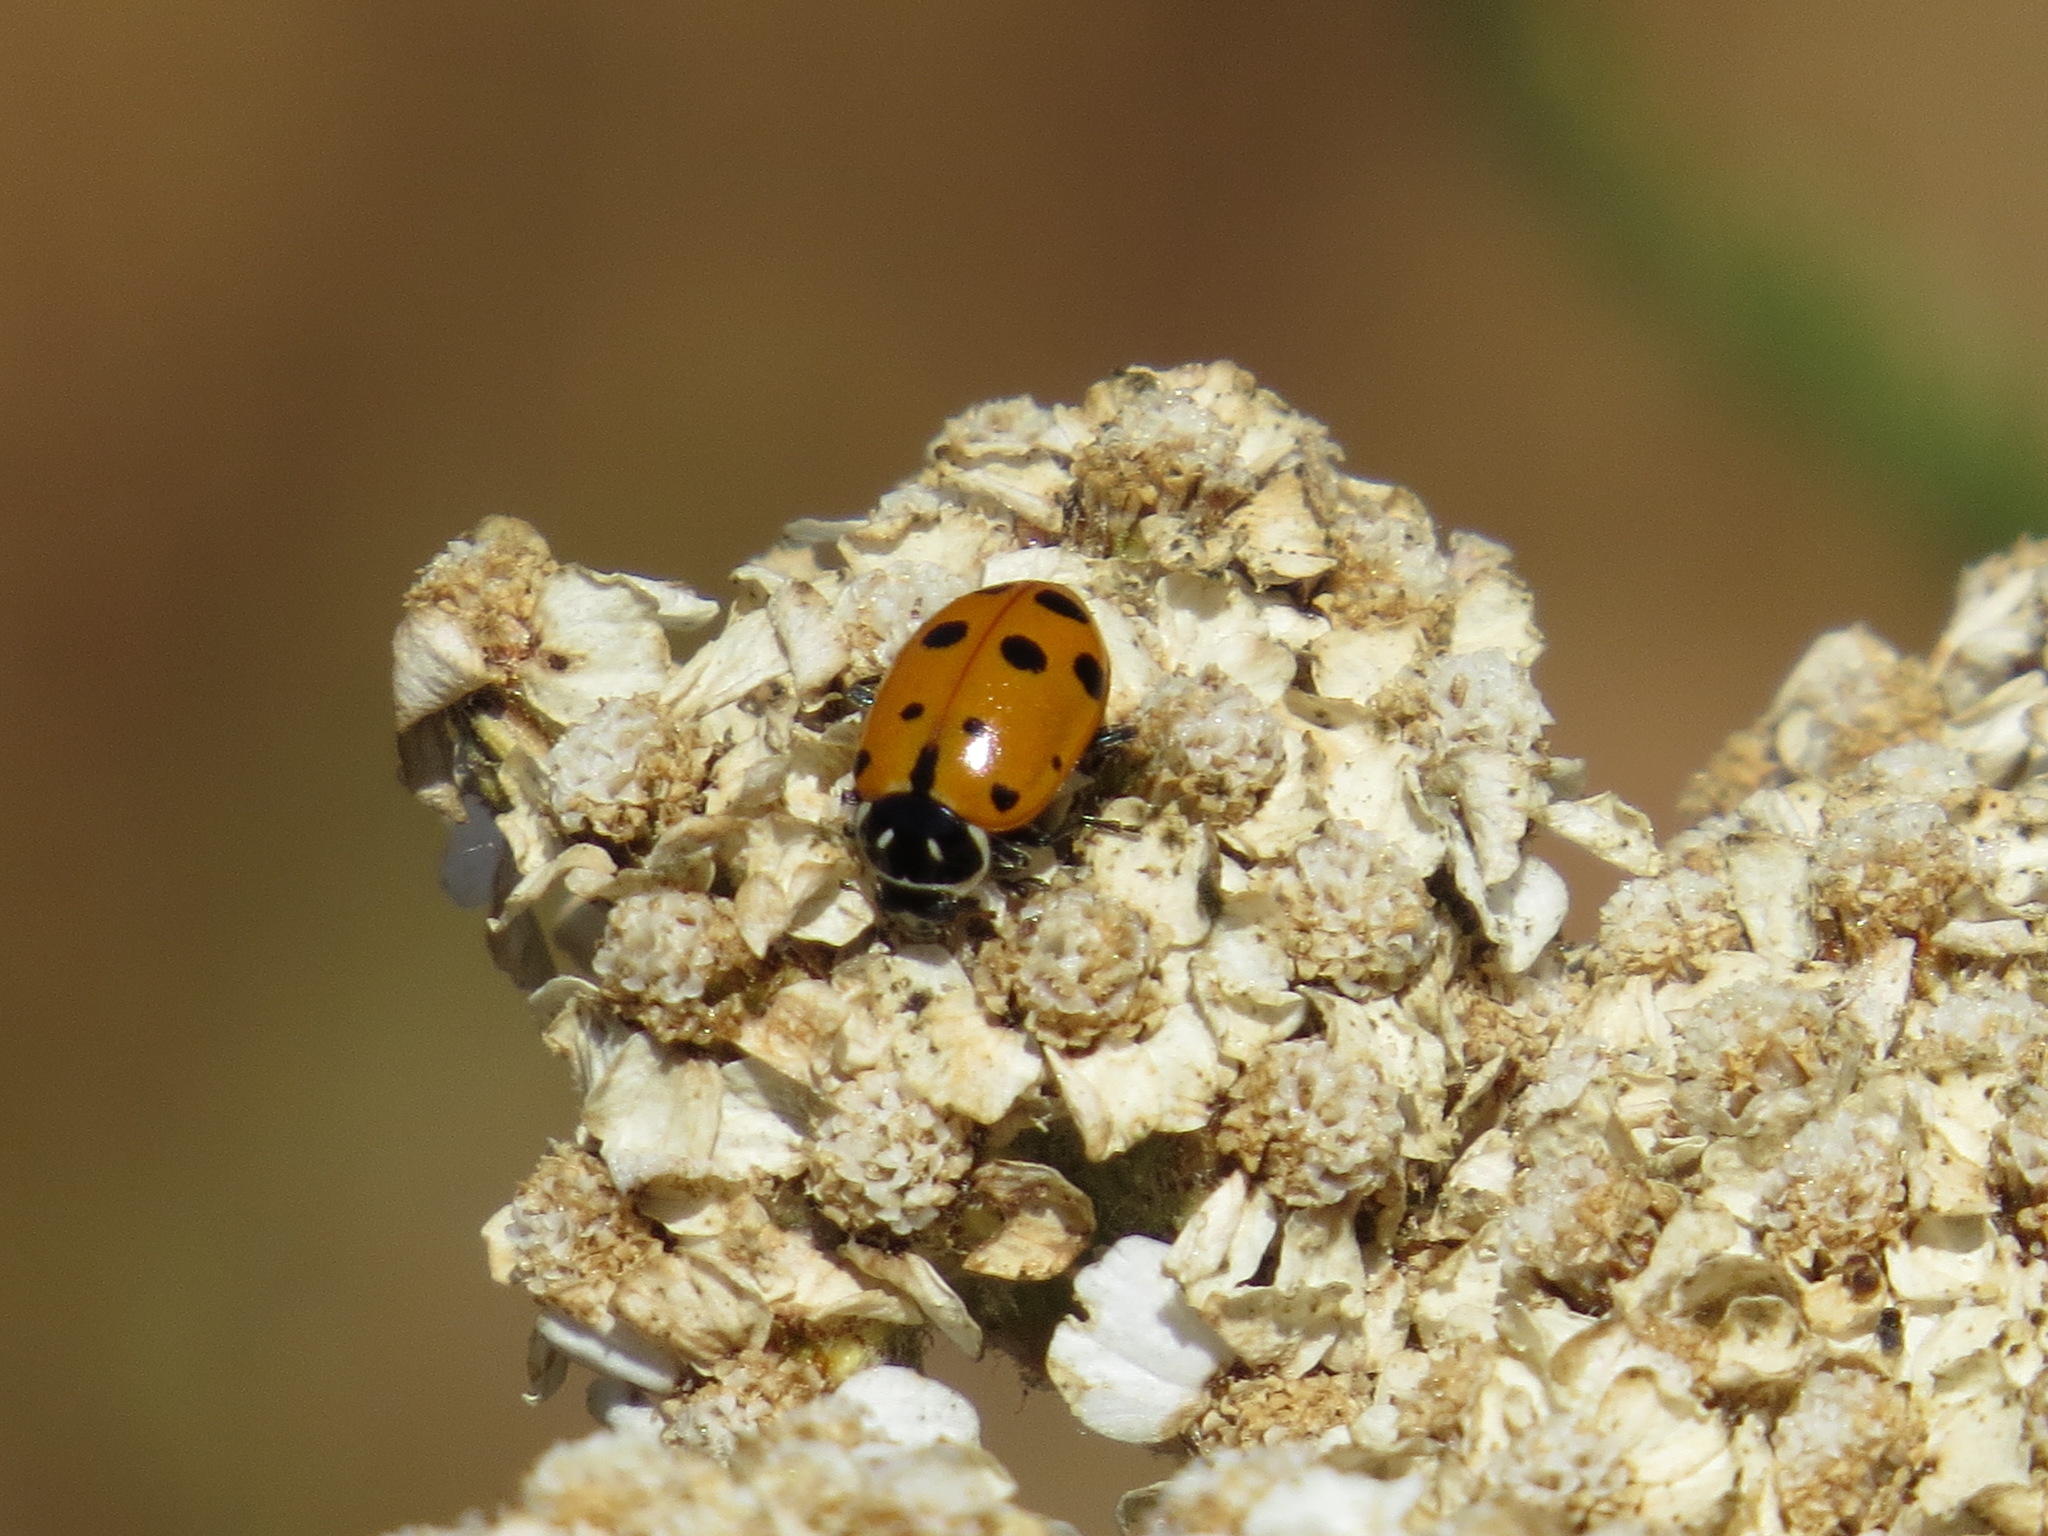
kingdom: Animalia
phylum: Arthropoda
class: Insecta
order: Coleoptera
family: Coccinellidae
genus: Hippodamia
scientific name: Hippodamia convergens
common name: Convergent lady beetle
